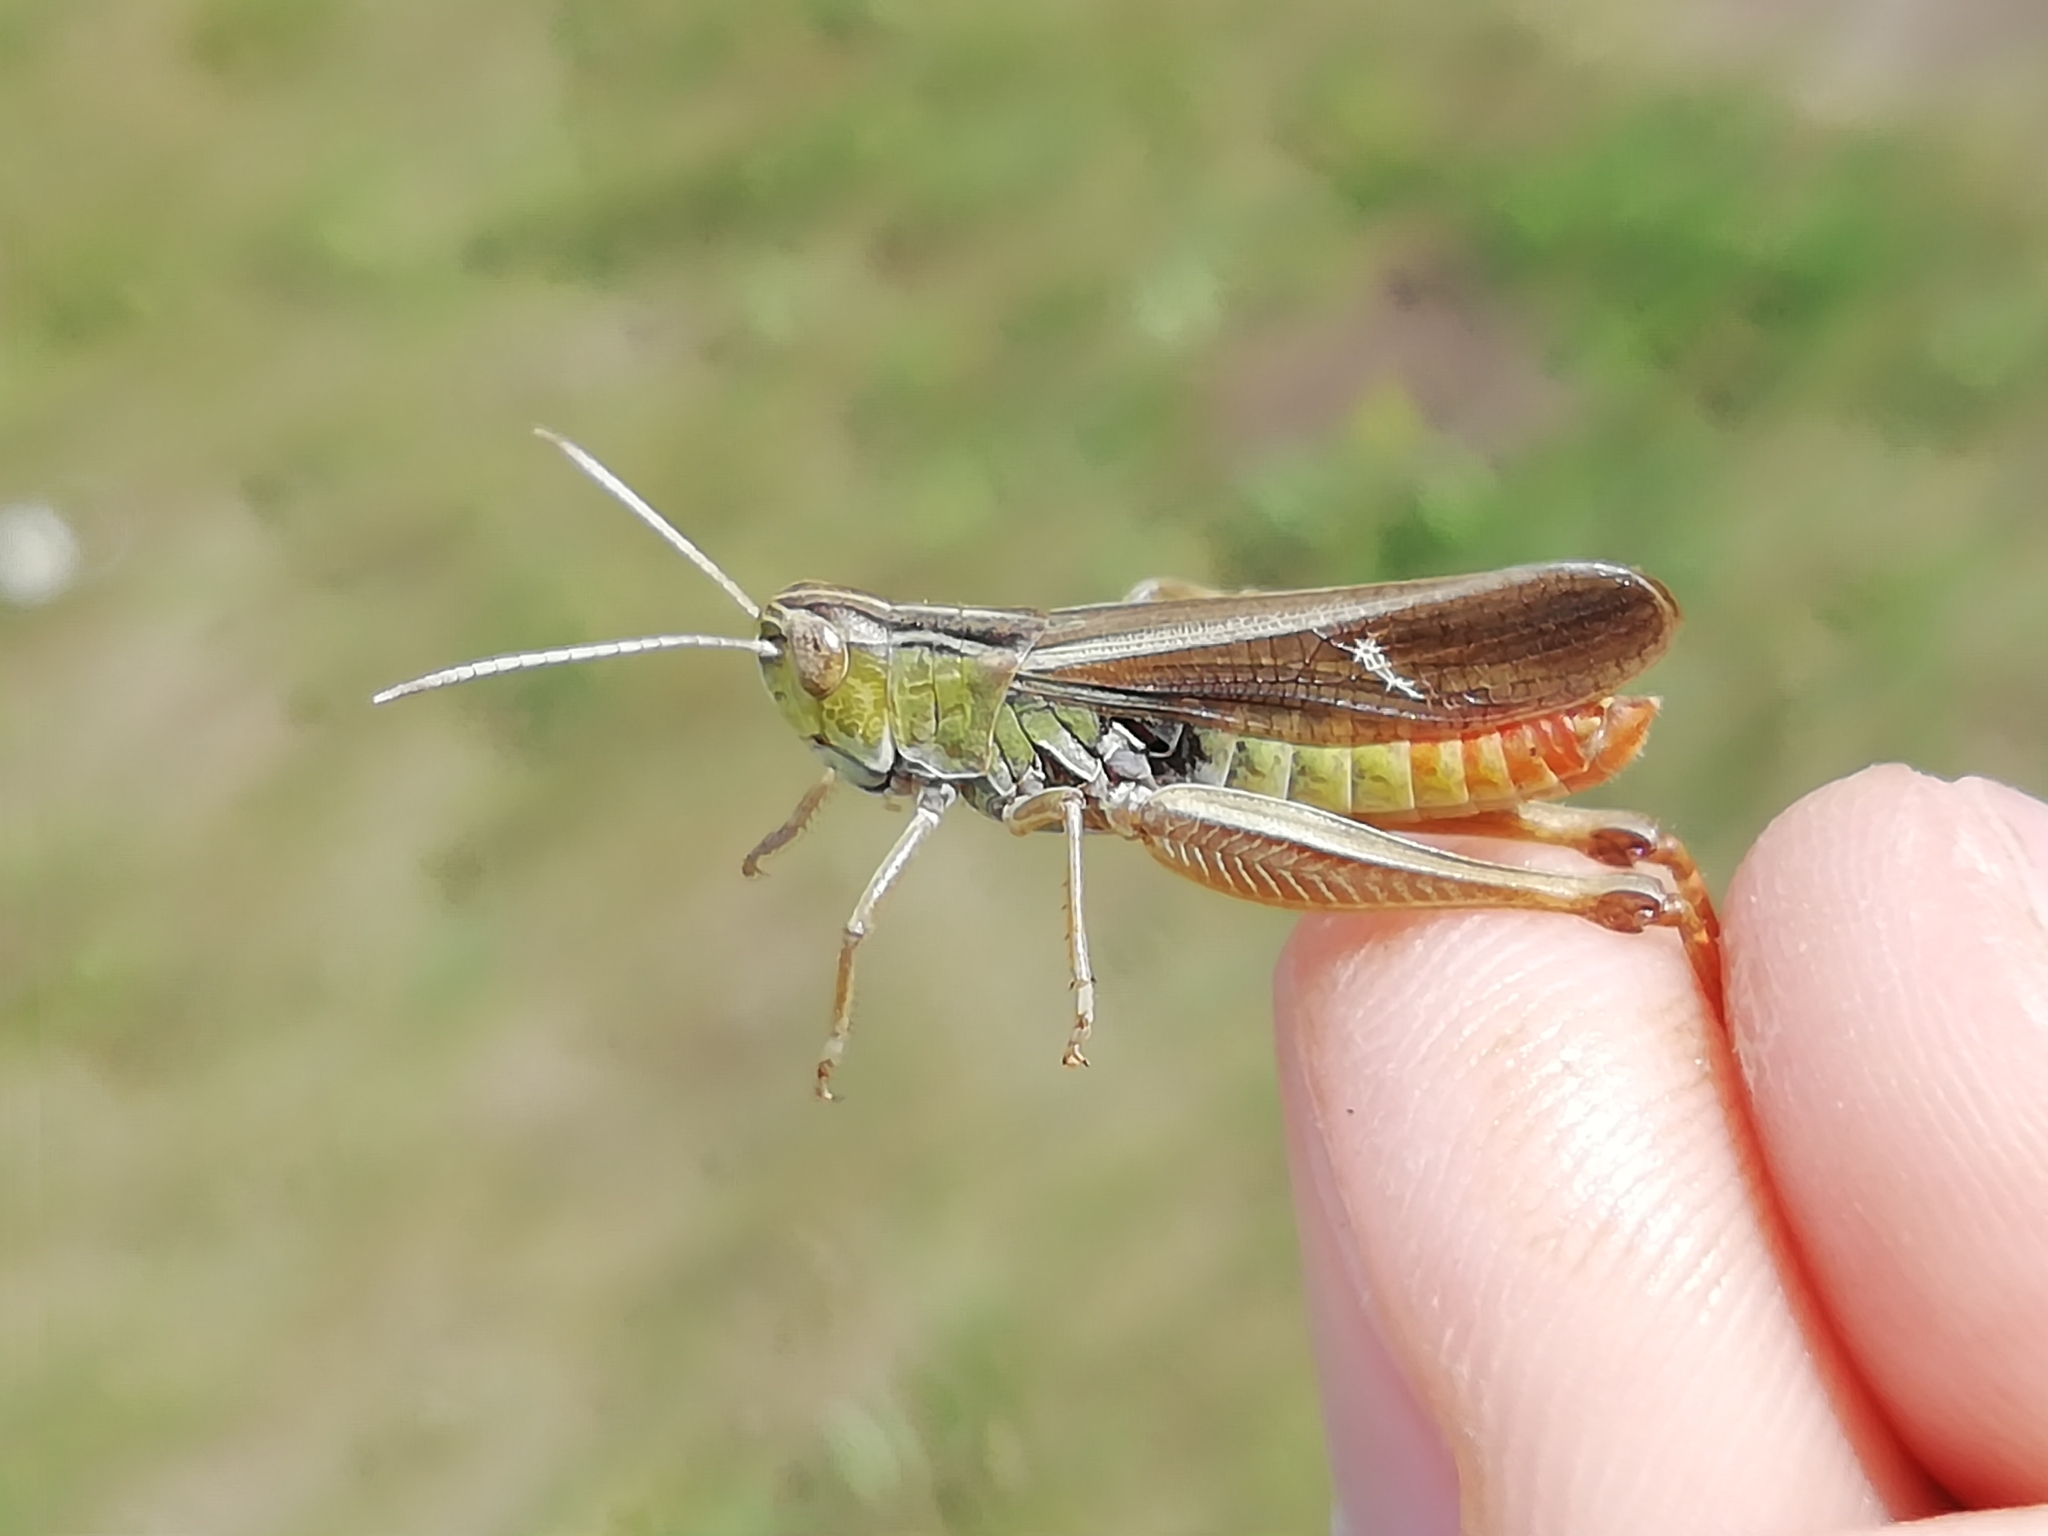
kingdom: Animalia
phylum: Arthropoda
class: Insecta
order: Orthoptera
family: Acrididae
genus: Stenobothrus
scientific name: Stenobothrus lineatus
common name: Stripe-winged grasshopper
